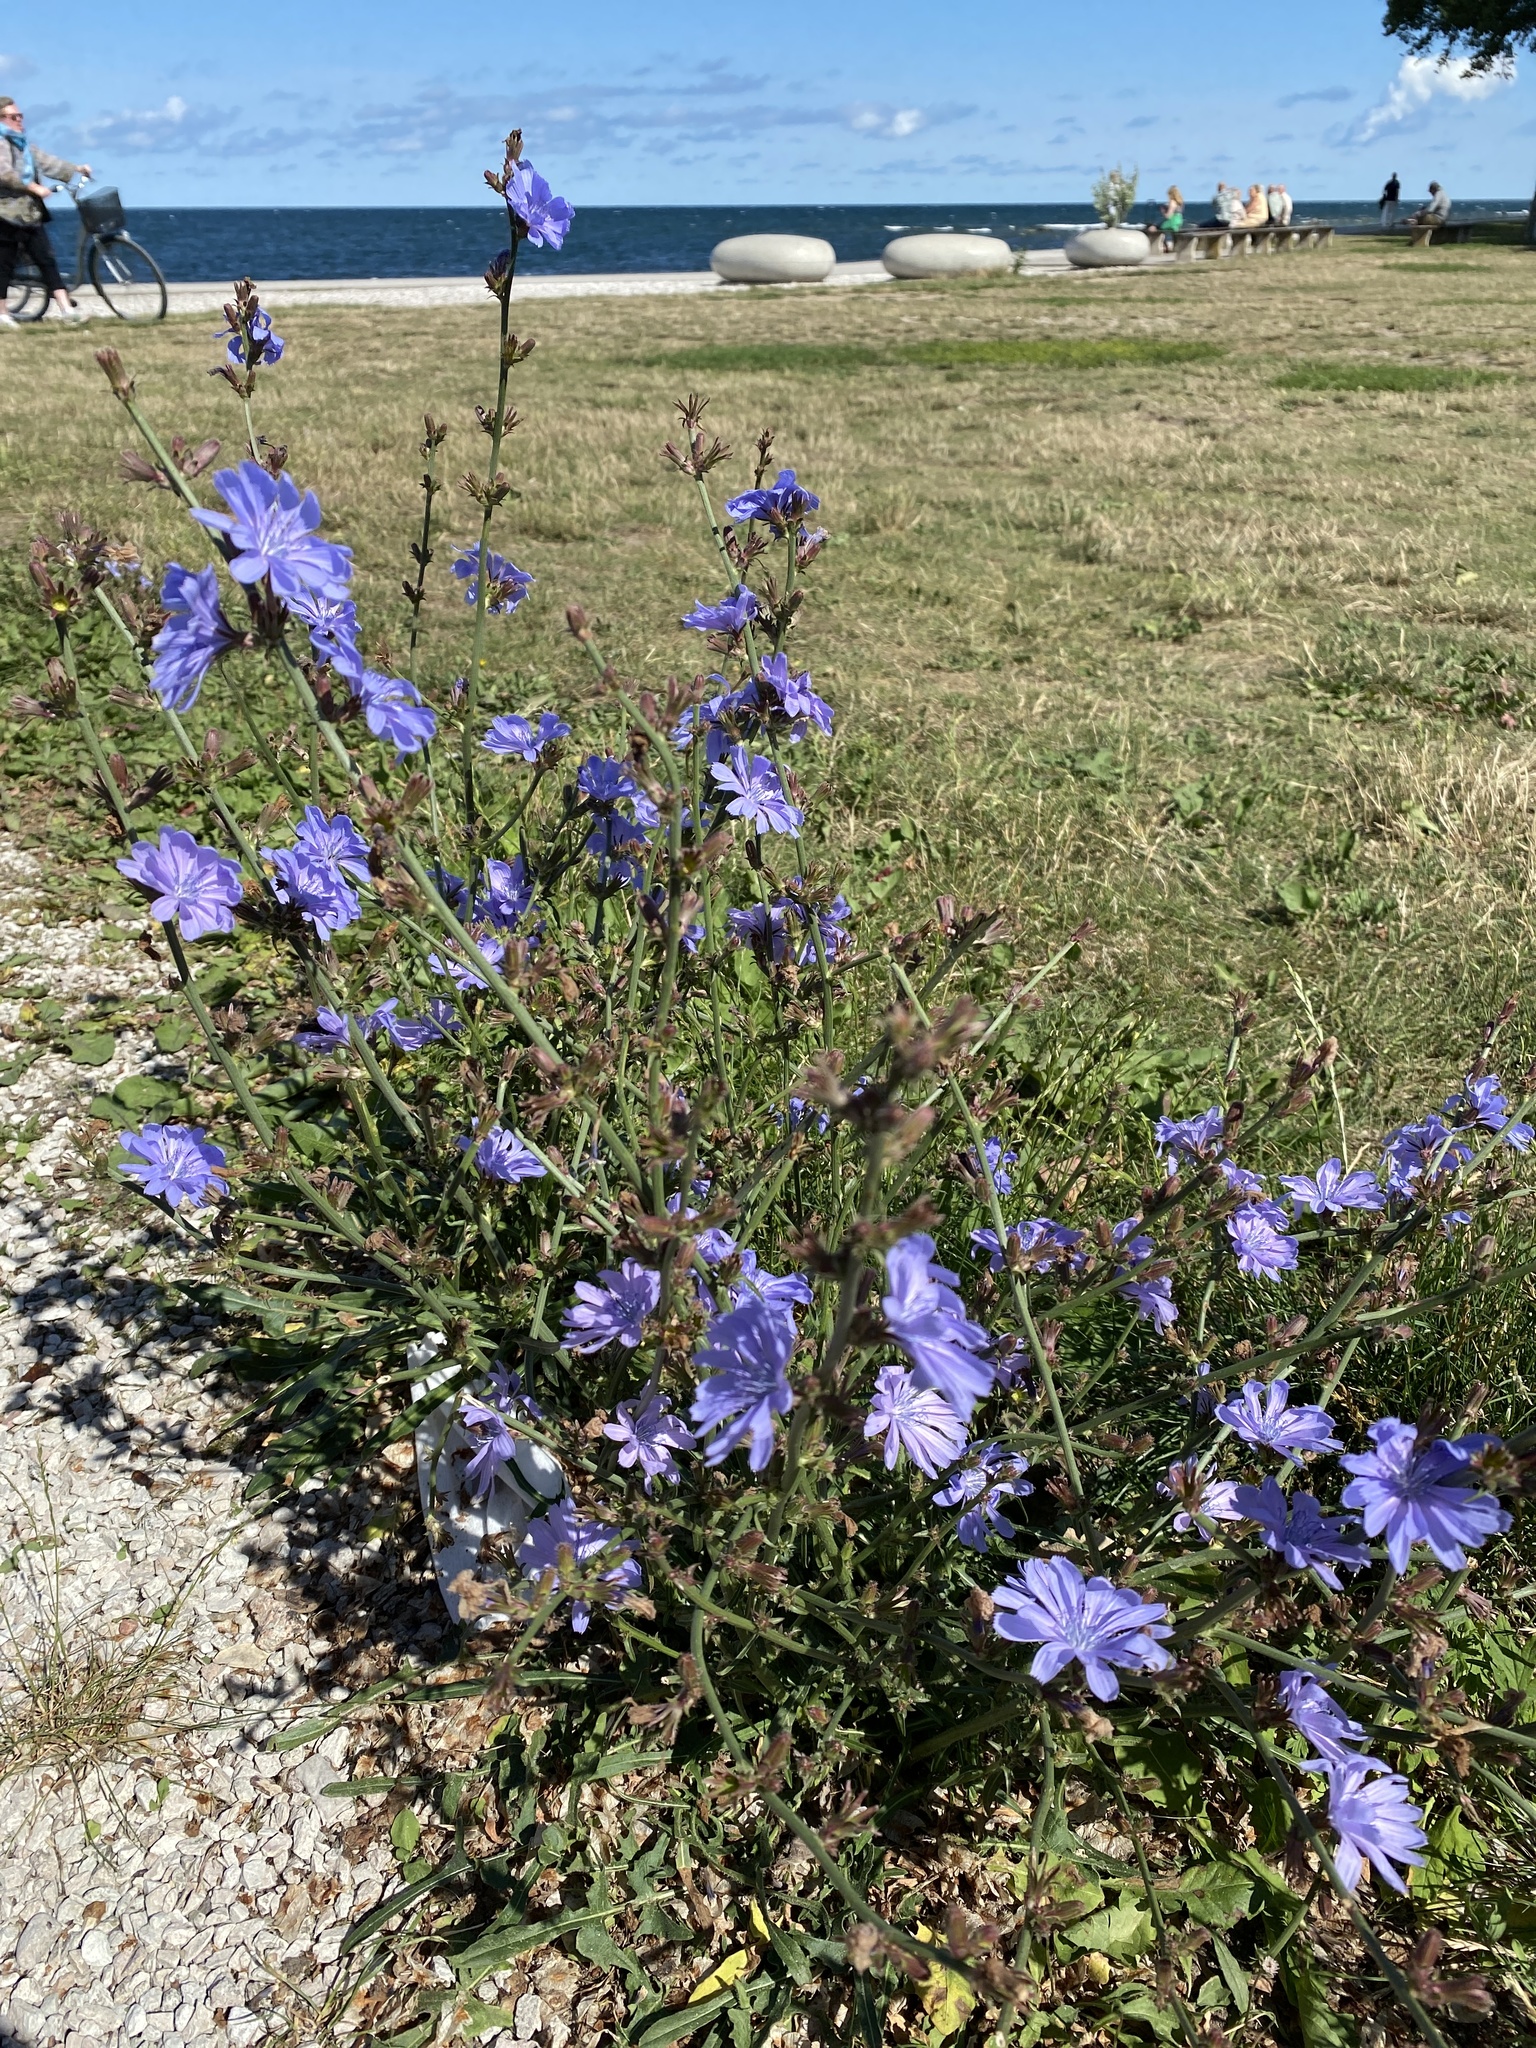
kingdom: Plantae
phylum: Tracheophyta
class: Magnoliopsida
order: Asterales
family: Asteraceae
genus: Cichorium
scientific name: Cichorium intybus
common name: Chicory
